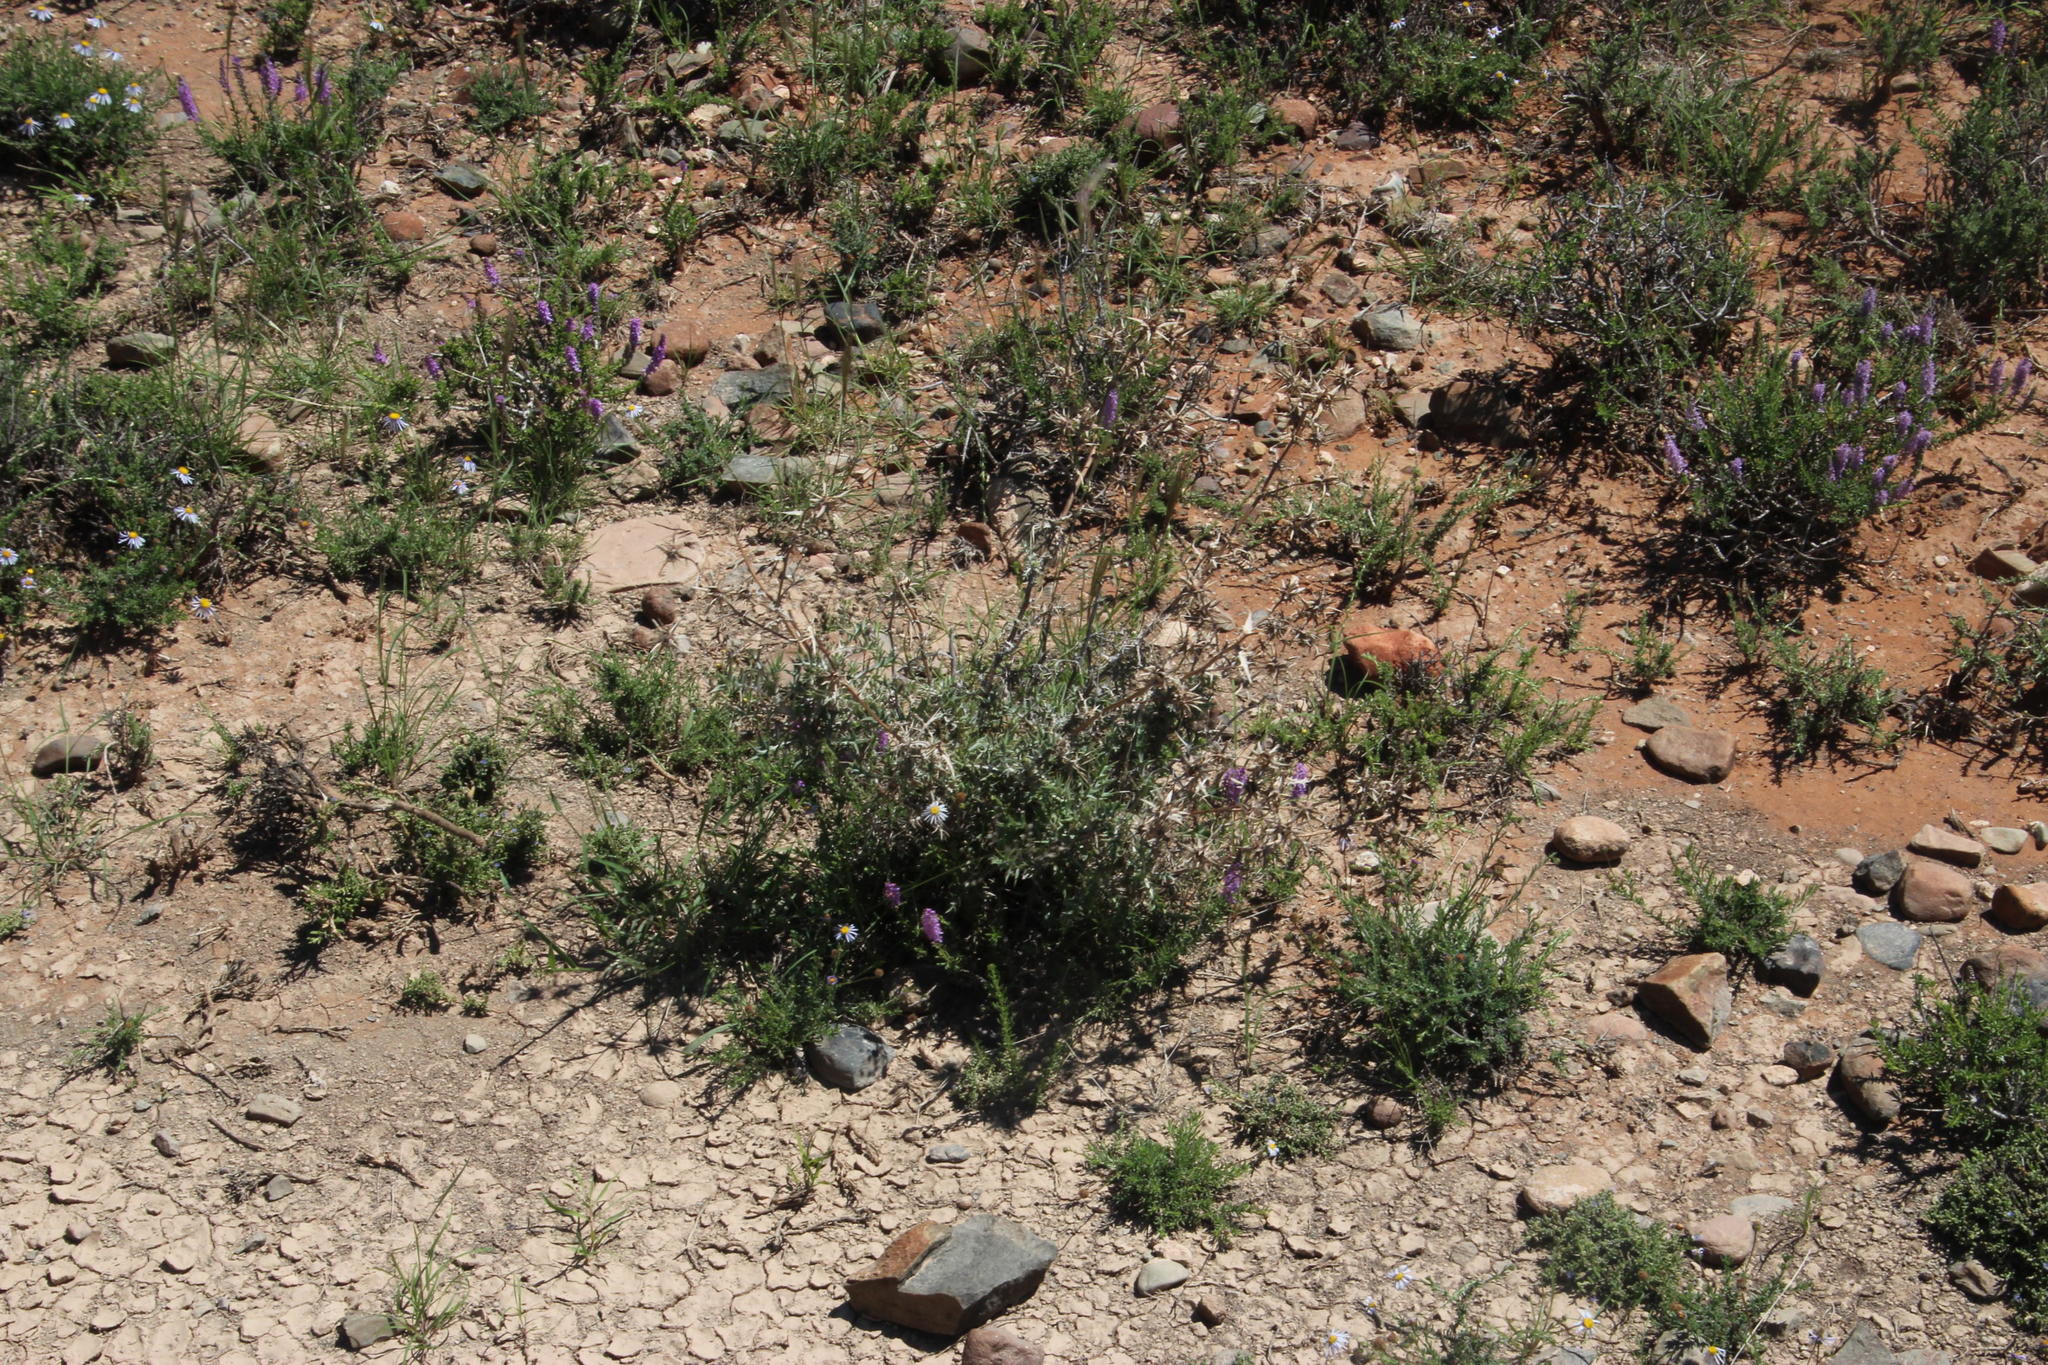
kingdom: Plantae
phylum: Tracheophyta
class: Magnoliopsida
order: Asterales
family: Asteraceae
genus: Berkheya
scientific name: Berkheya carlinifolia
